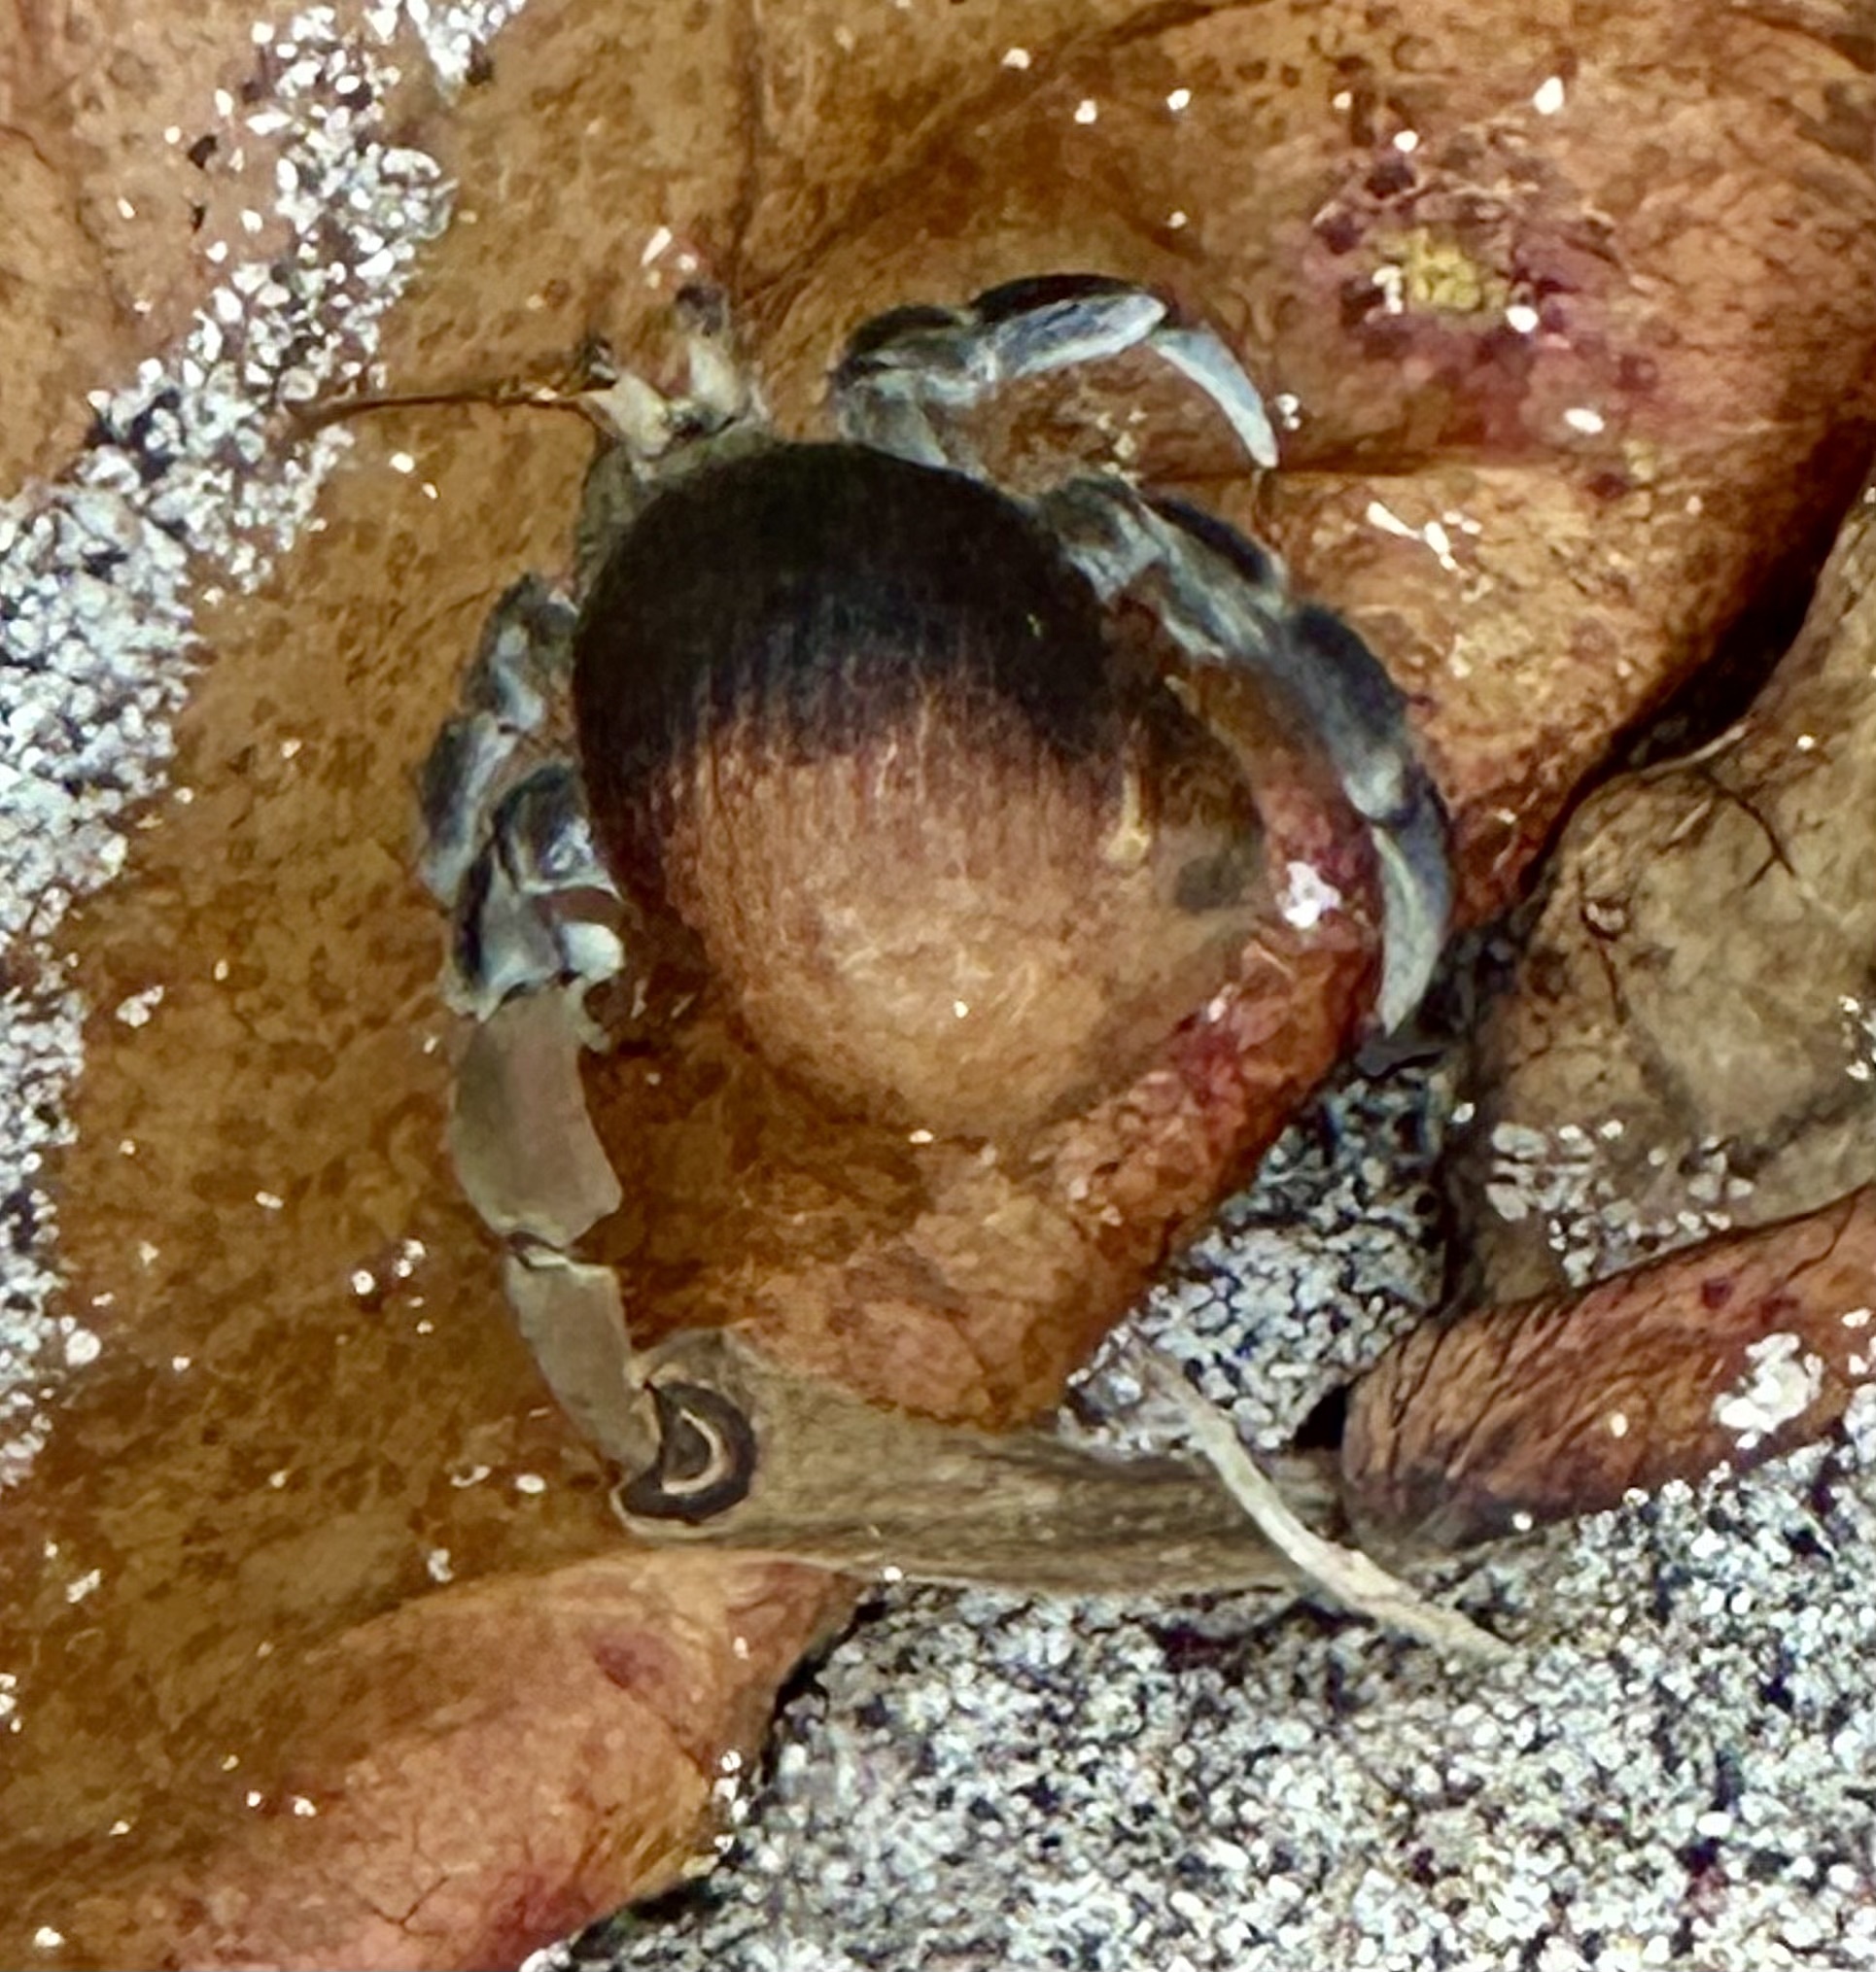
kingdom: Animalia
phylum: Arthropoda
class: Malacostraca
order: Decapoda
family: Coenobitidae
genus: Coenobita
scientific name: Coenobita compressus
